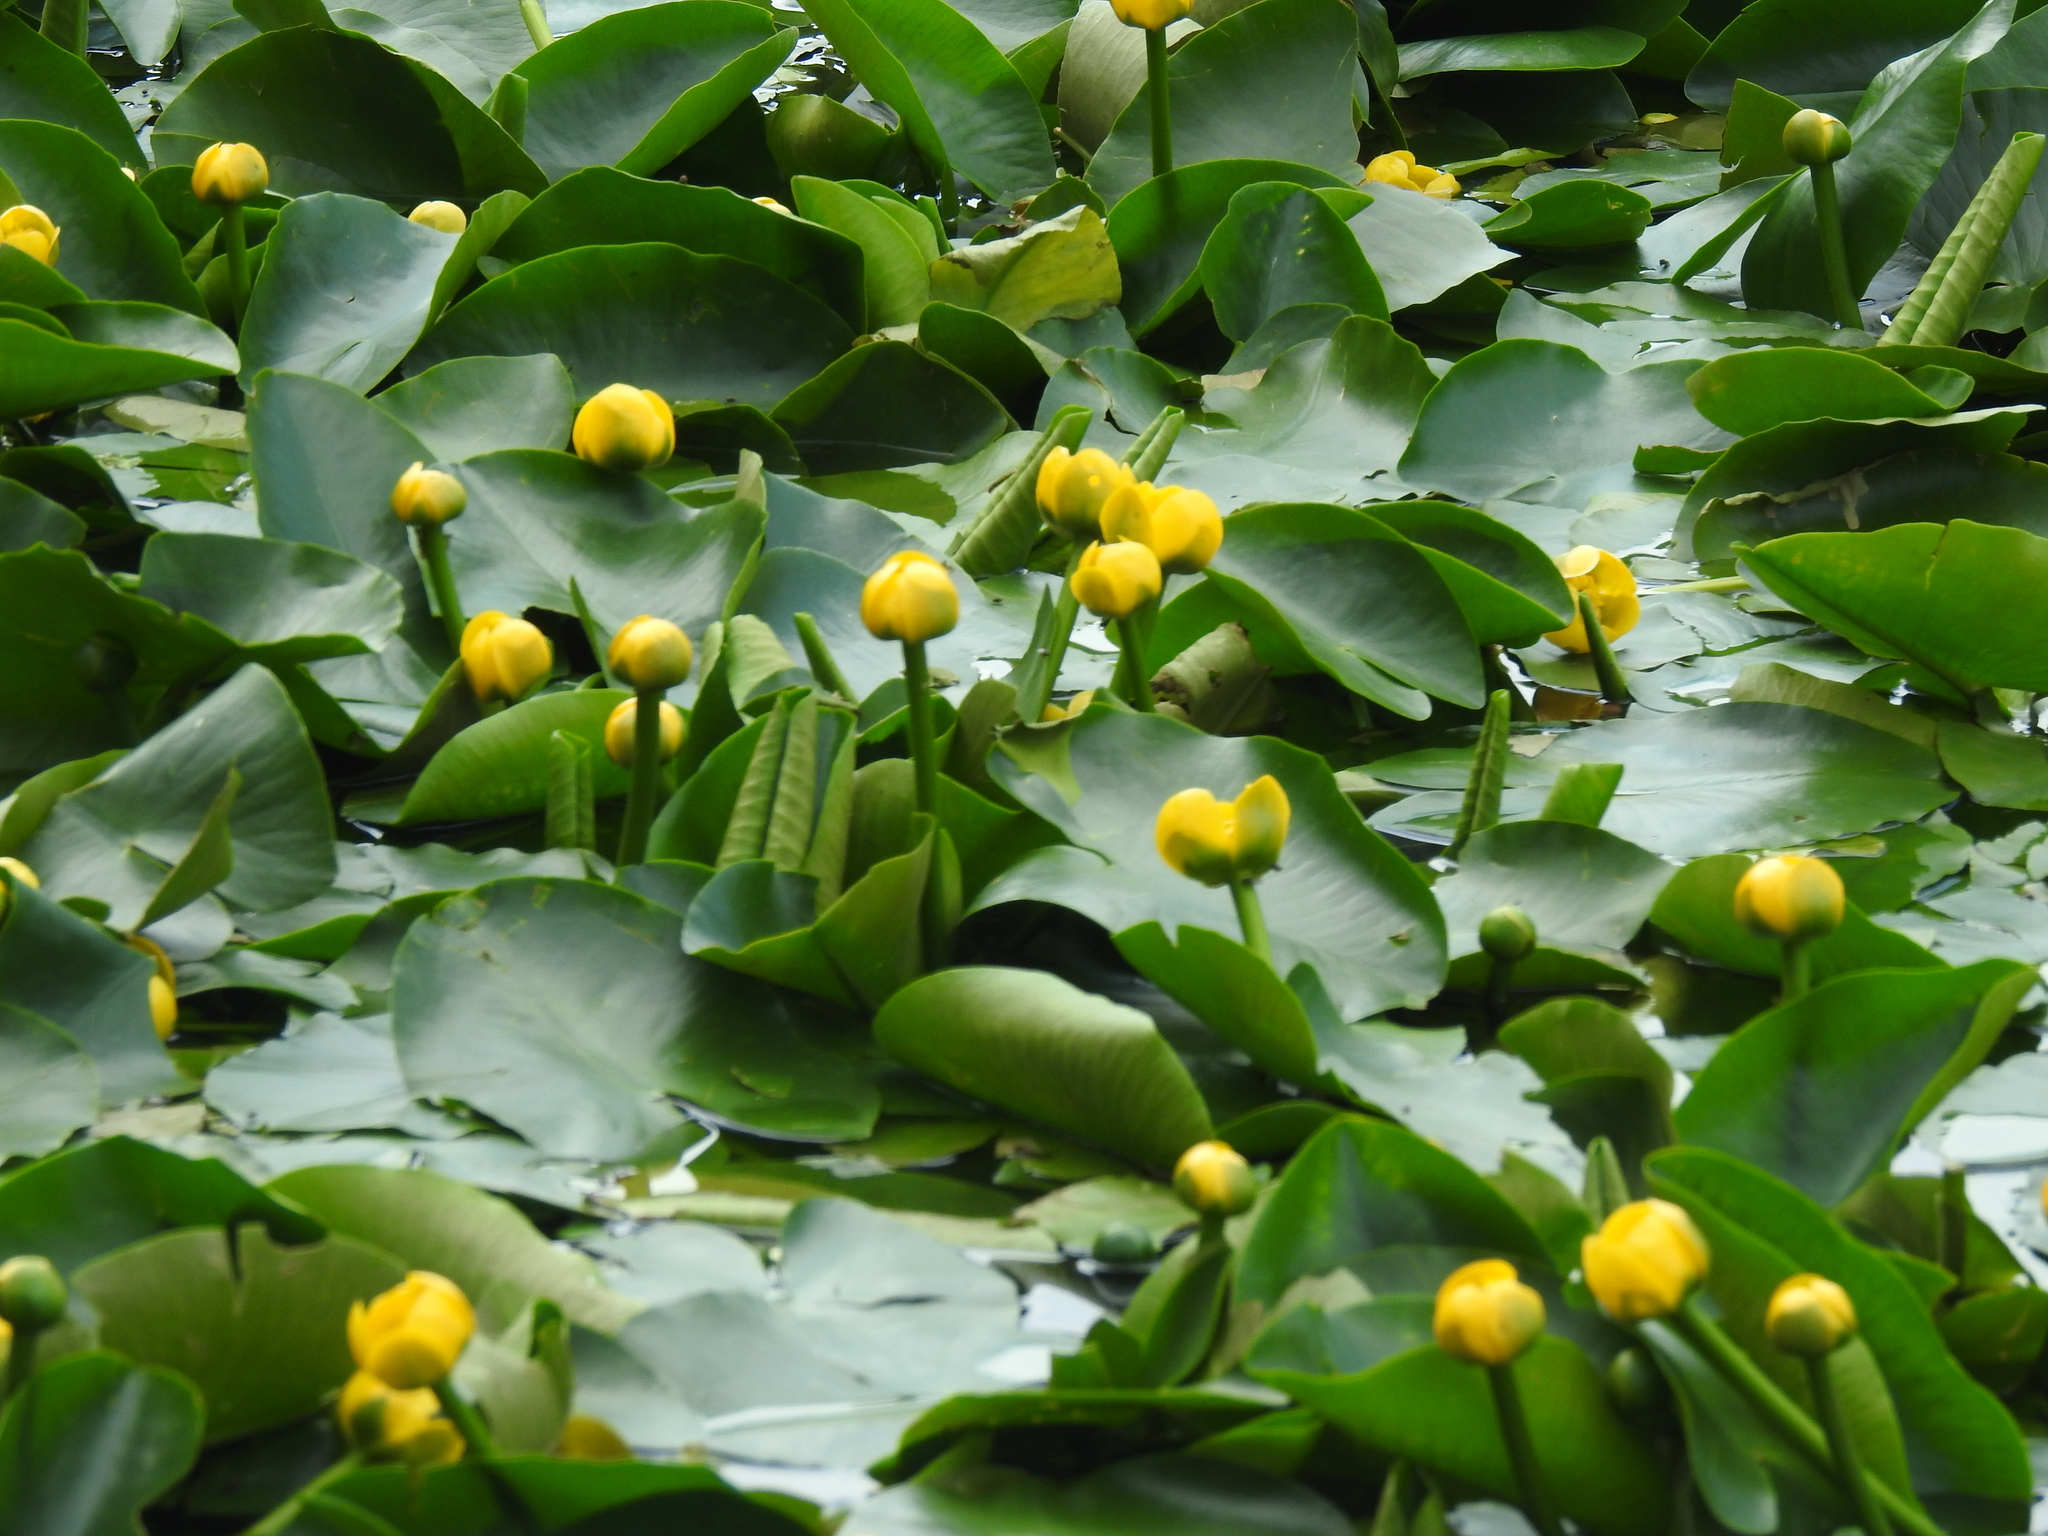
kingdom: Plantae
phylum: Tracheophyta
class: Magnoliopsida
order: Nymphaeales
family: Nymphaeaceae
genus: Nuphar
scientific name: Nuphar lutea
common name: Yellow water-lily
